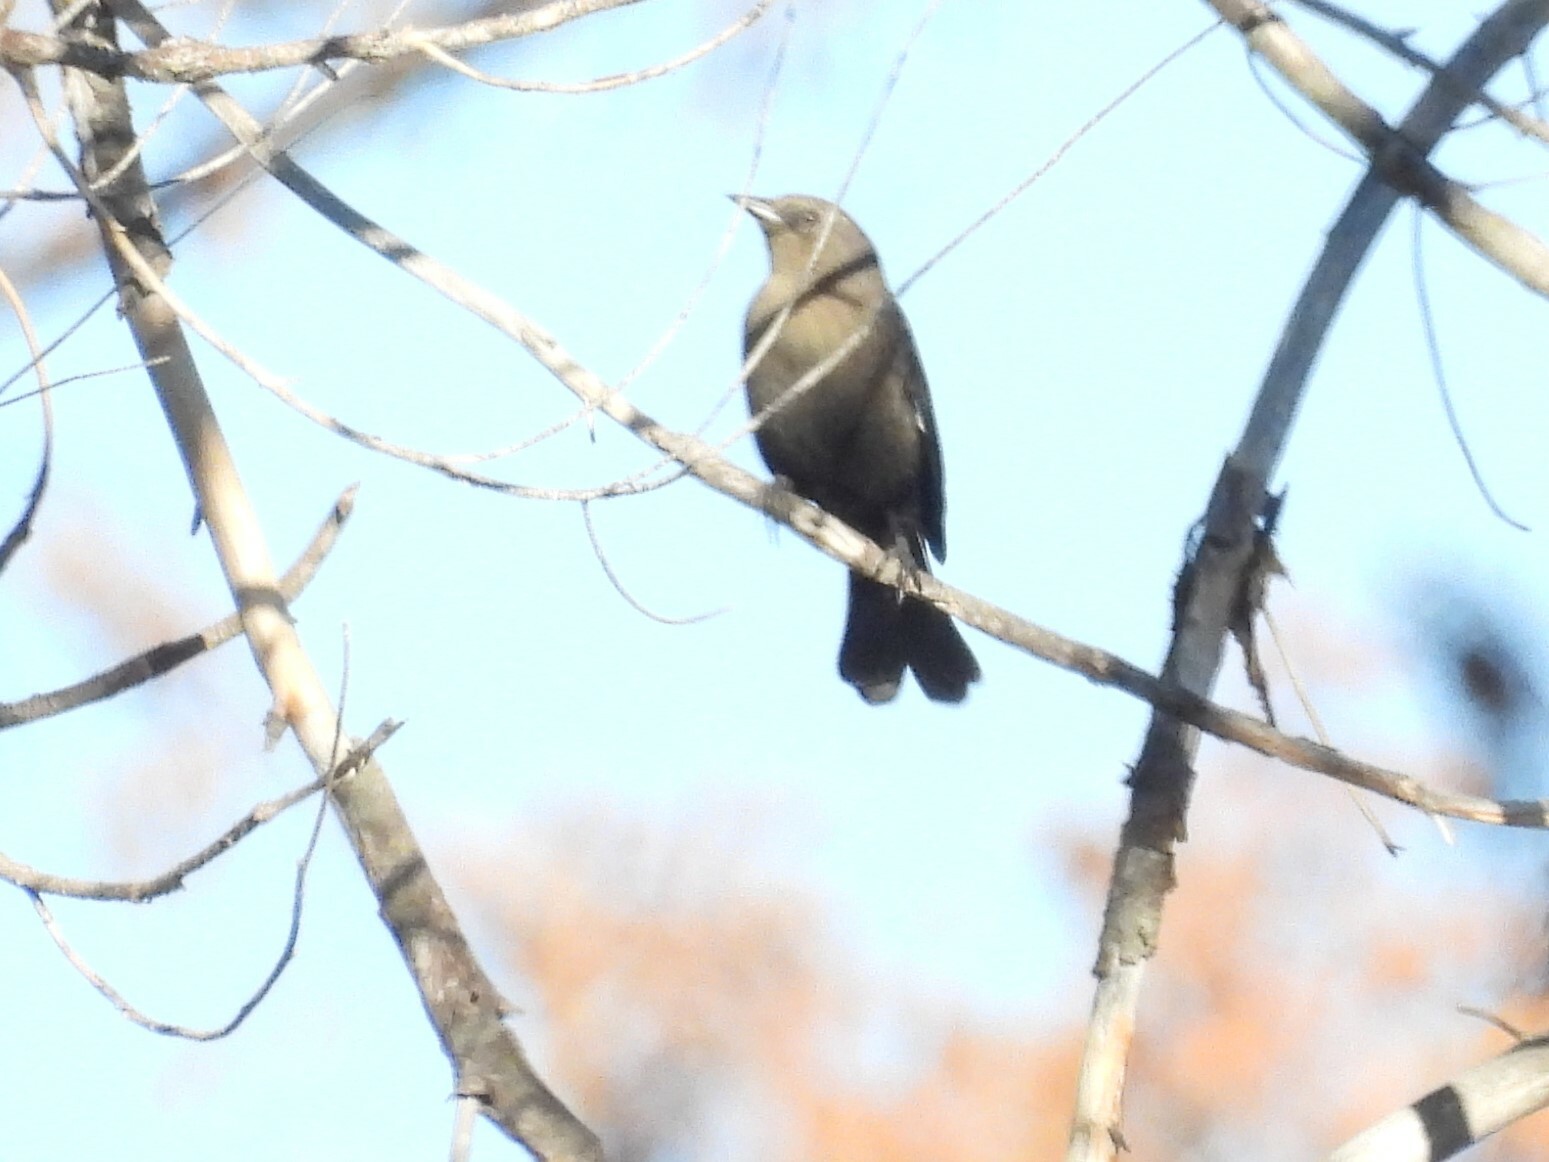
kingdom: Animalia
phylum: Chordata
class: Aves
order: Passeriformes
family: Icteridae
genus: Euphagus
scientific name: Euphagus cyanocephalus
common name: Brewer's blackbird
